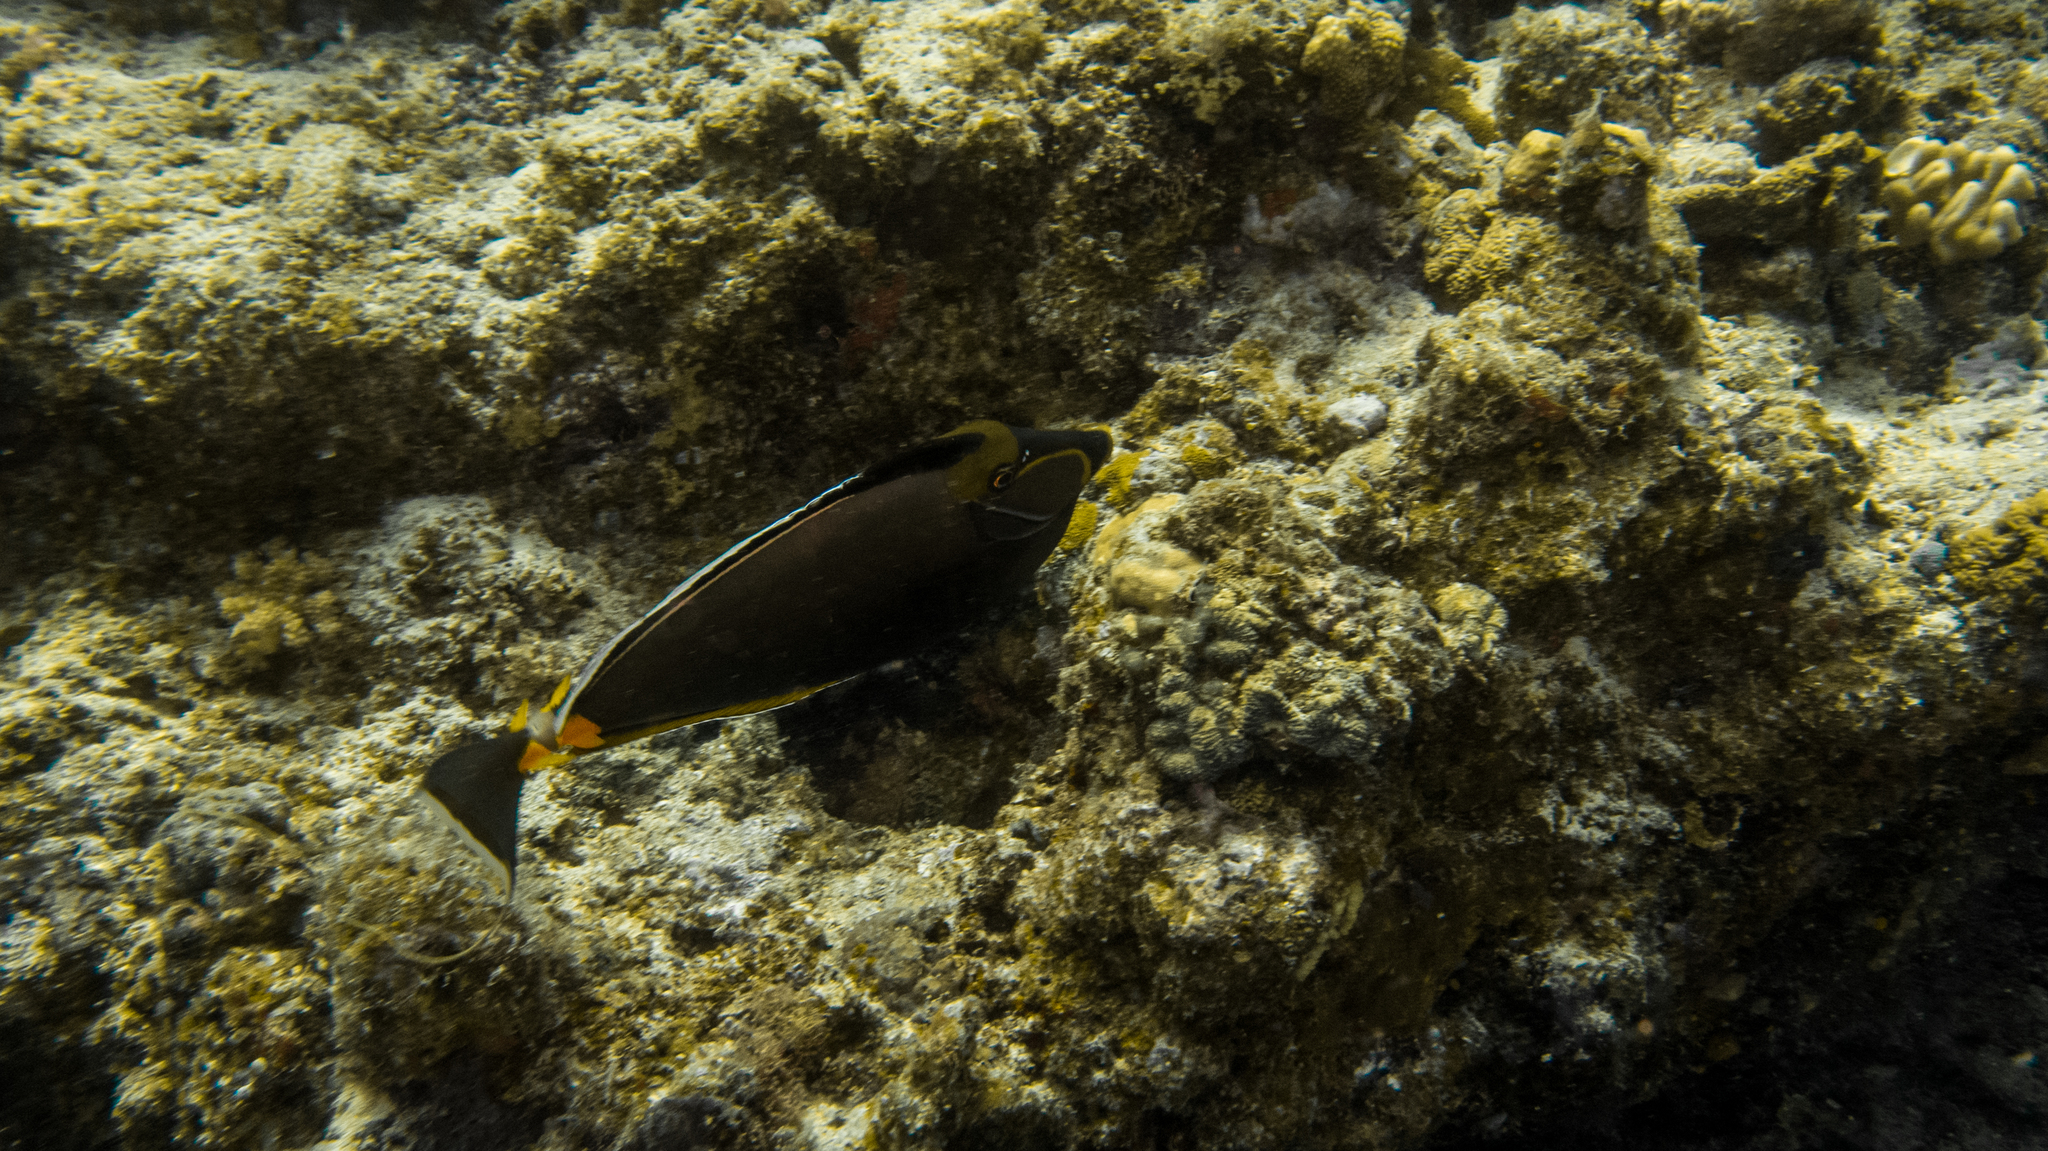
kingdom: Animalia
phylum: Chordata
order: Perciformes
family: Acanthuridae
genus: Naso
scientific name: Naso lituratus
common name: Orangespine unicornfish
